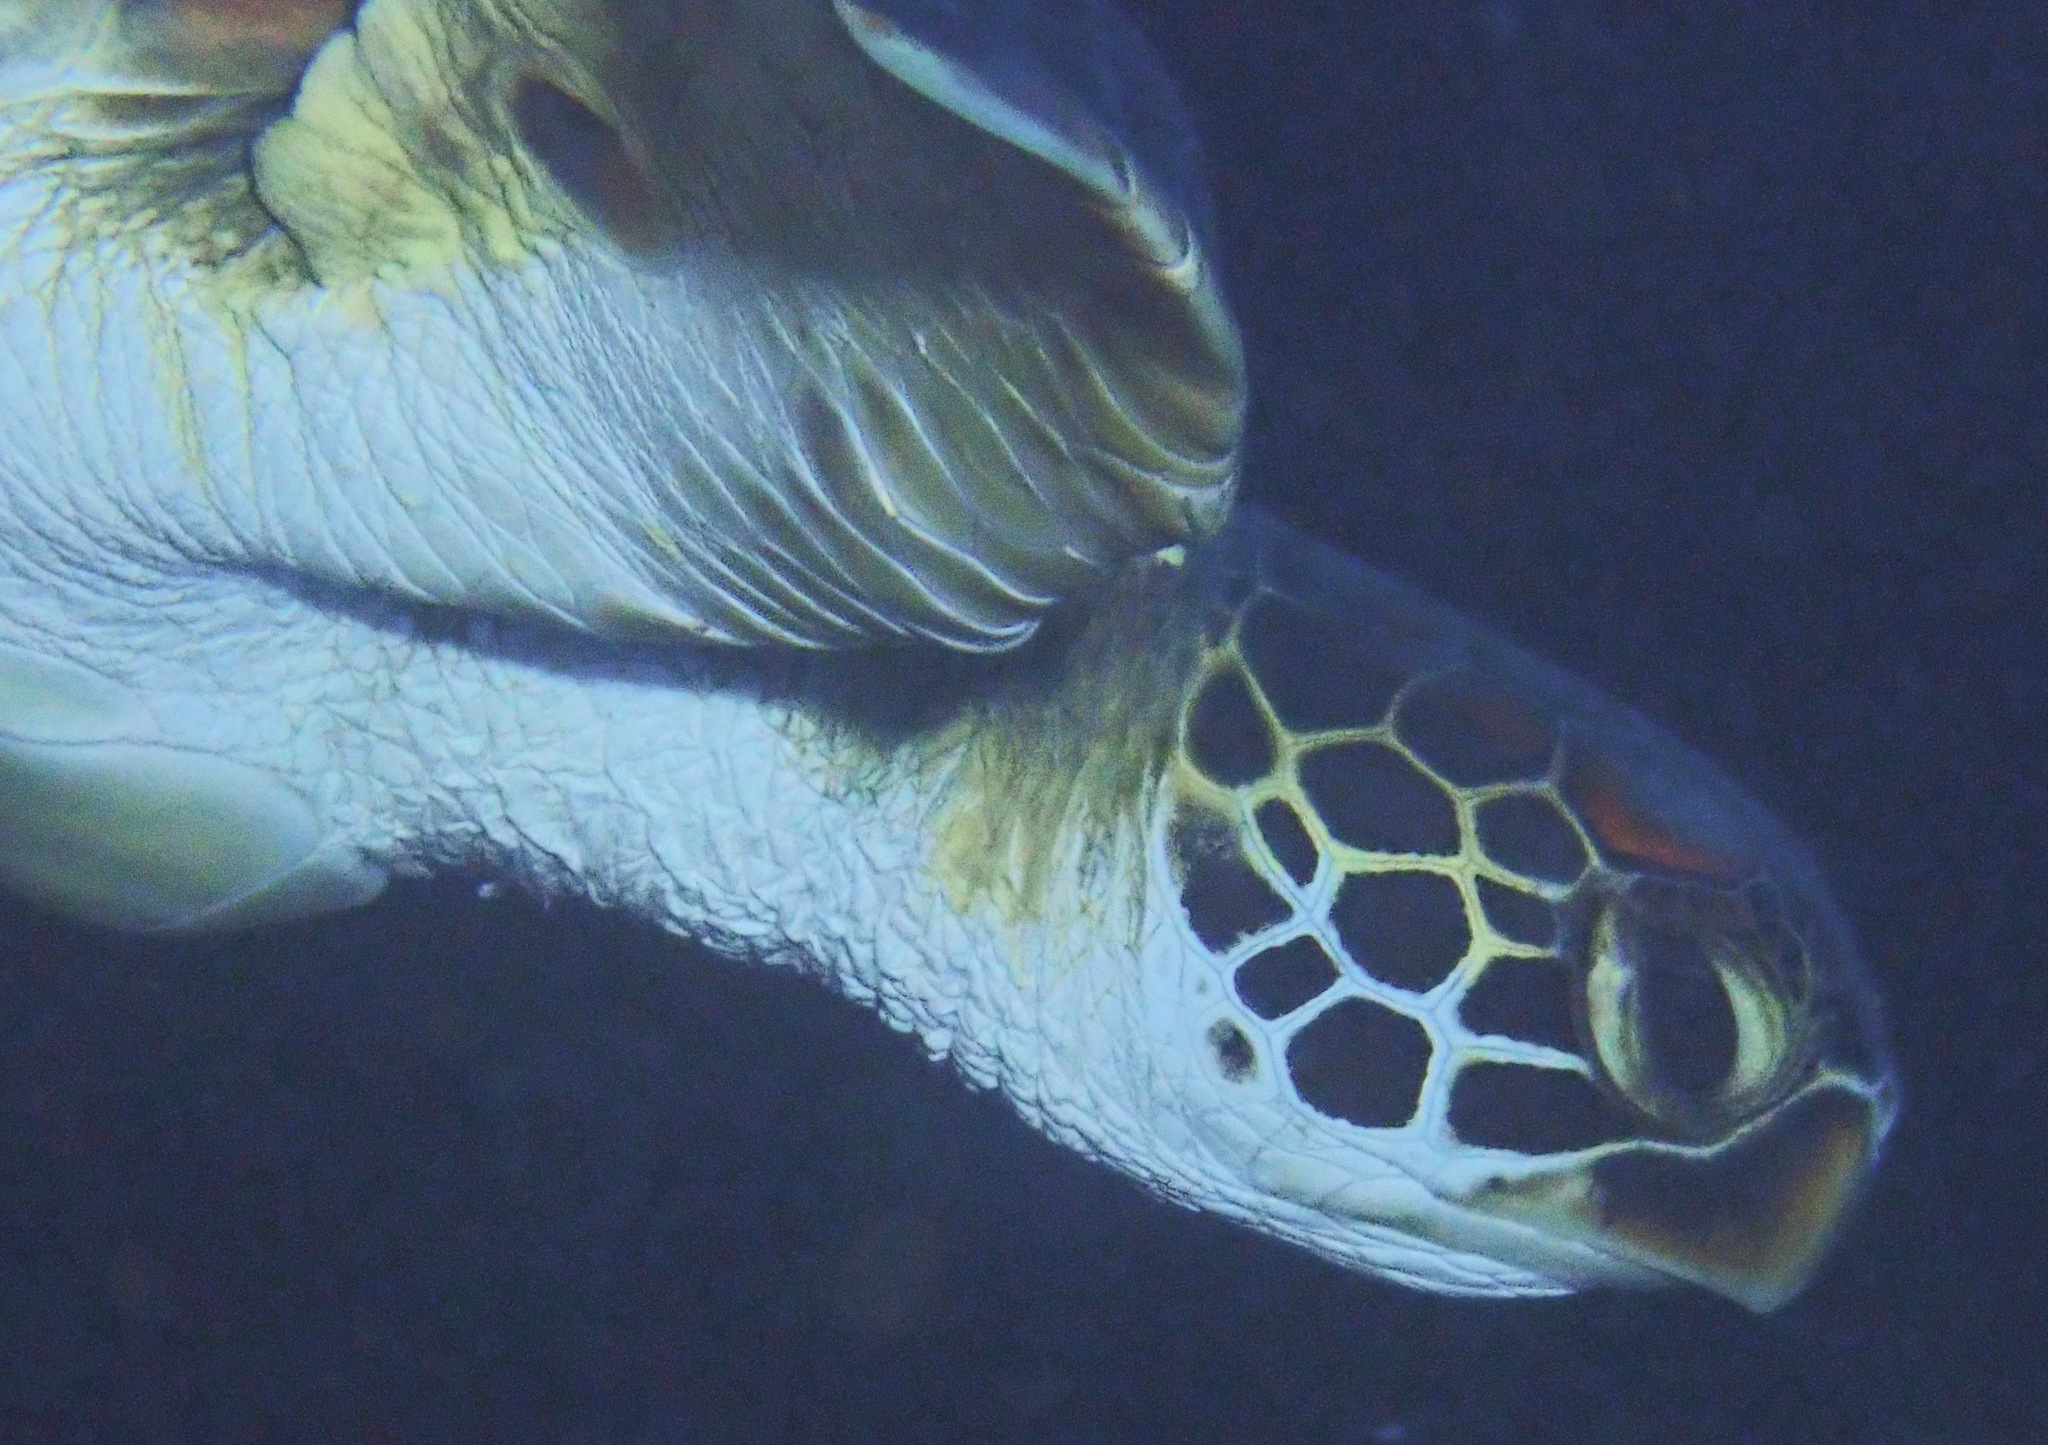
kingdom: Animalia
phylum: Chordata
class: Testudines
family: Cheloniidae
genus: Chelonia
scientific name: Chelonia mydas
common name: Green turtle
